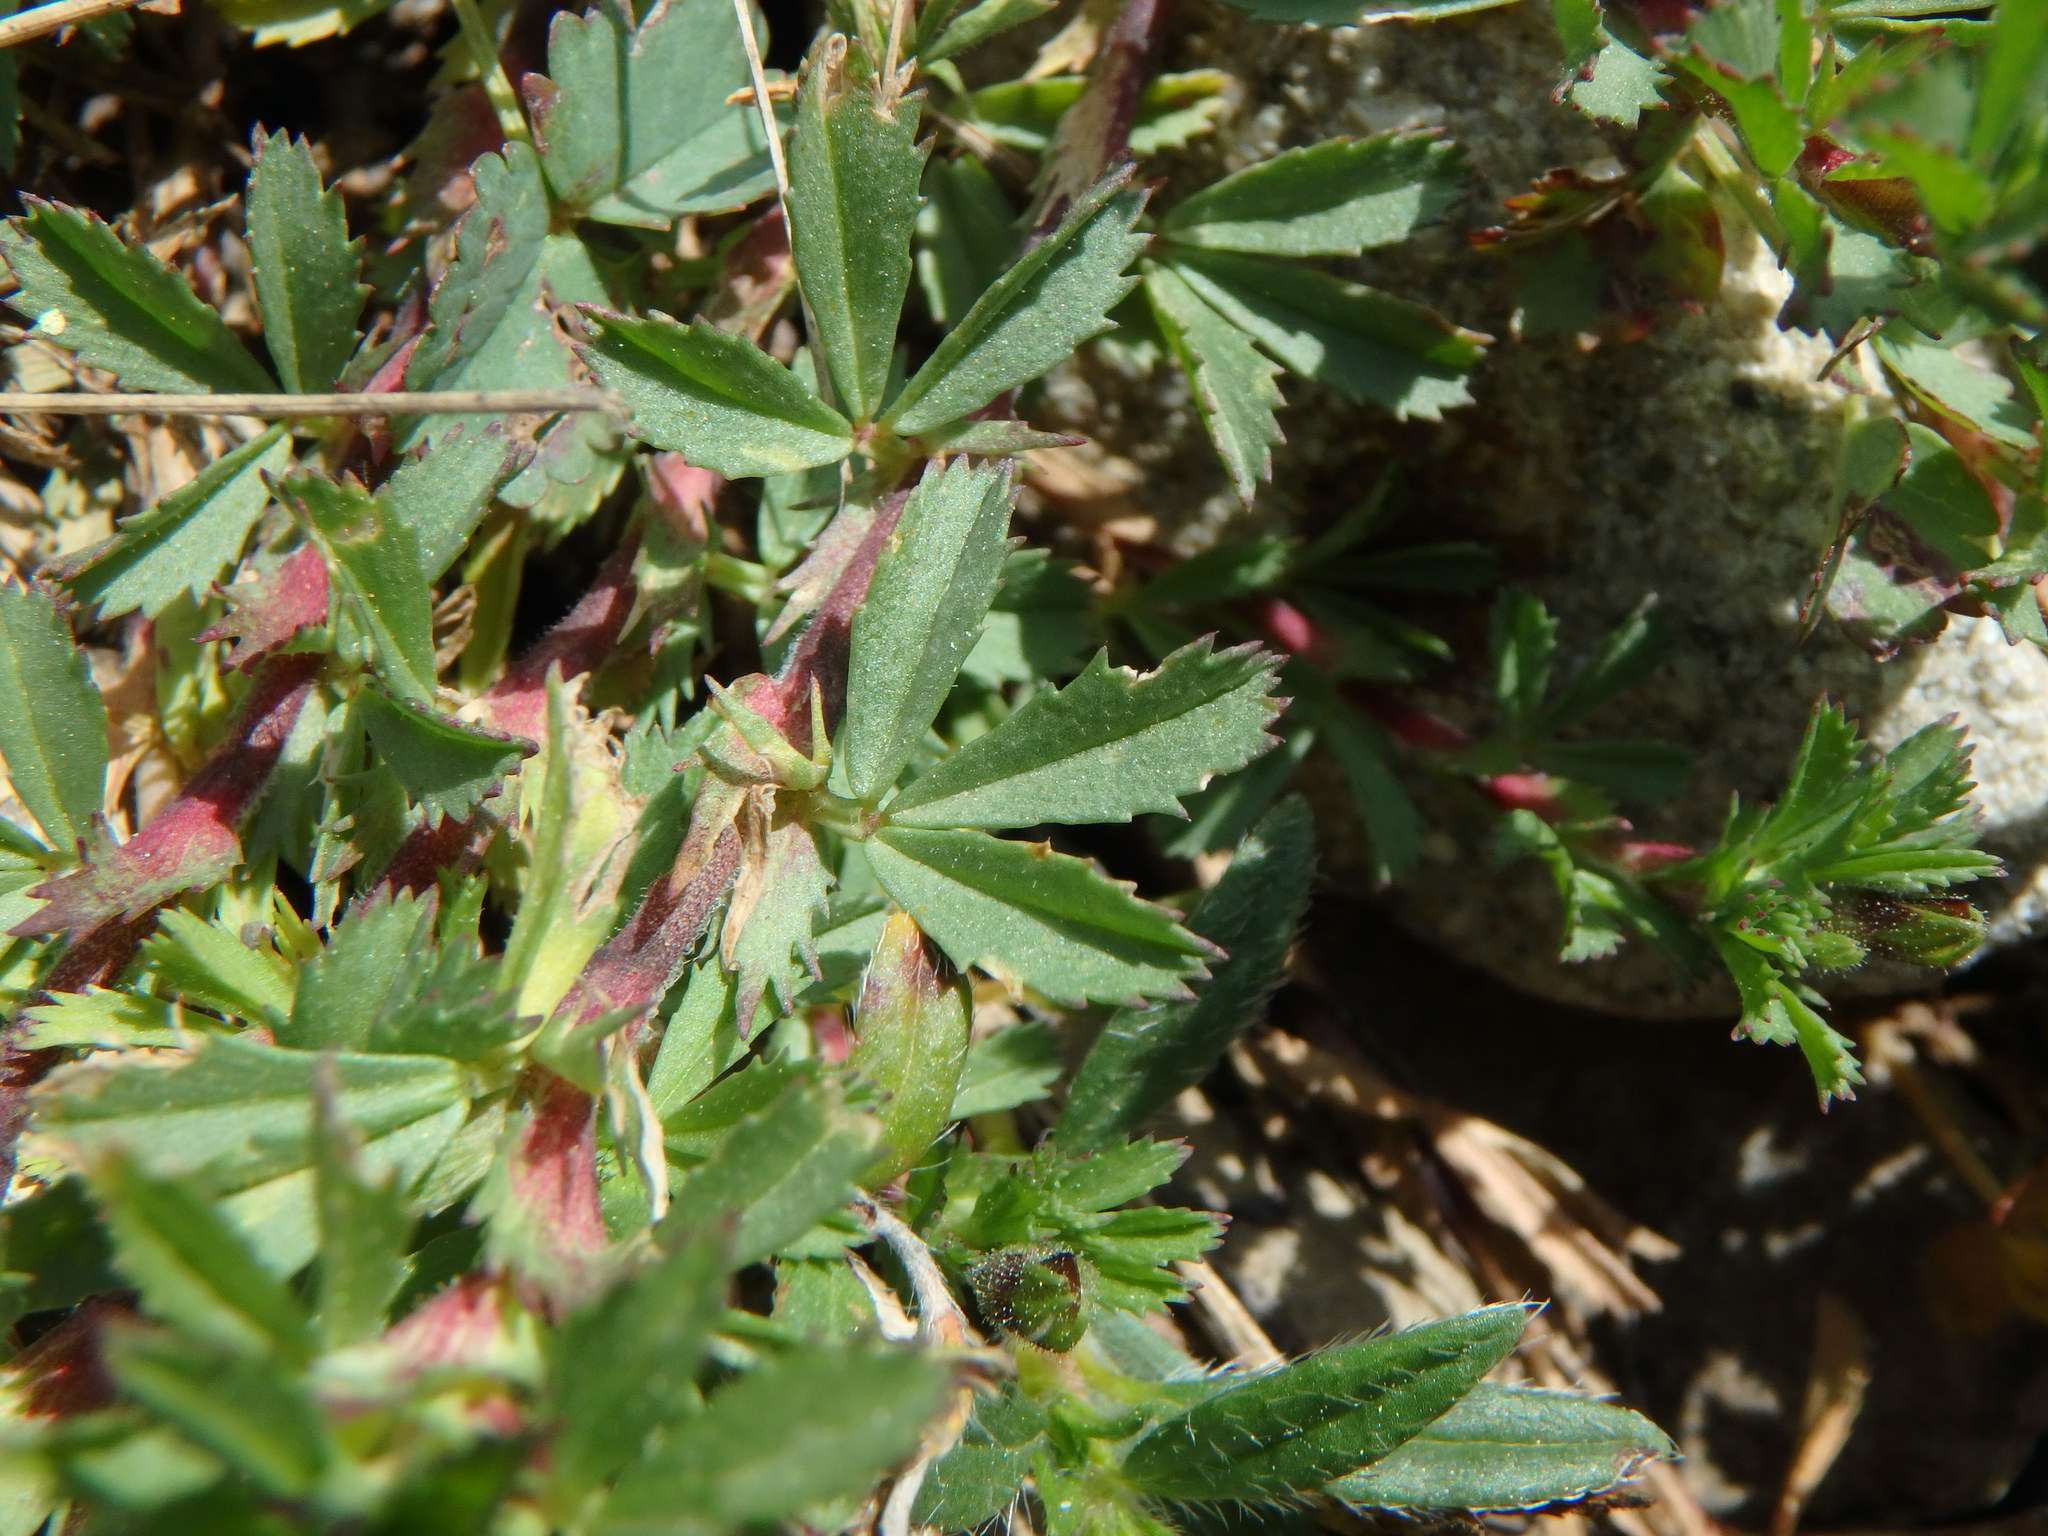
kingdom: Plantae
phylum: Tracheophyta
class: Magnoliopsida
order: Fabales
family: Fabaceae
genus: Ononis
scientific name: Ononis cristata
